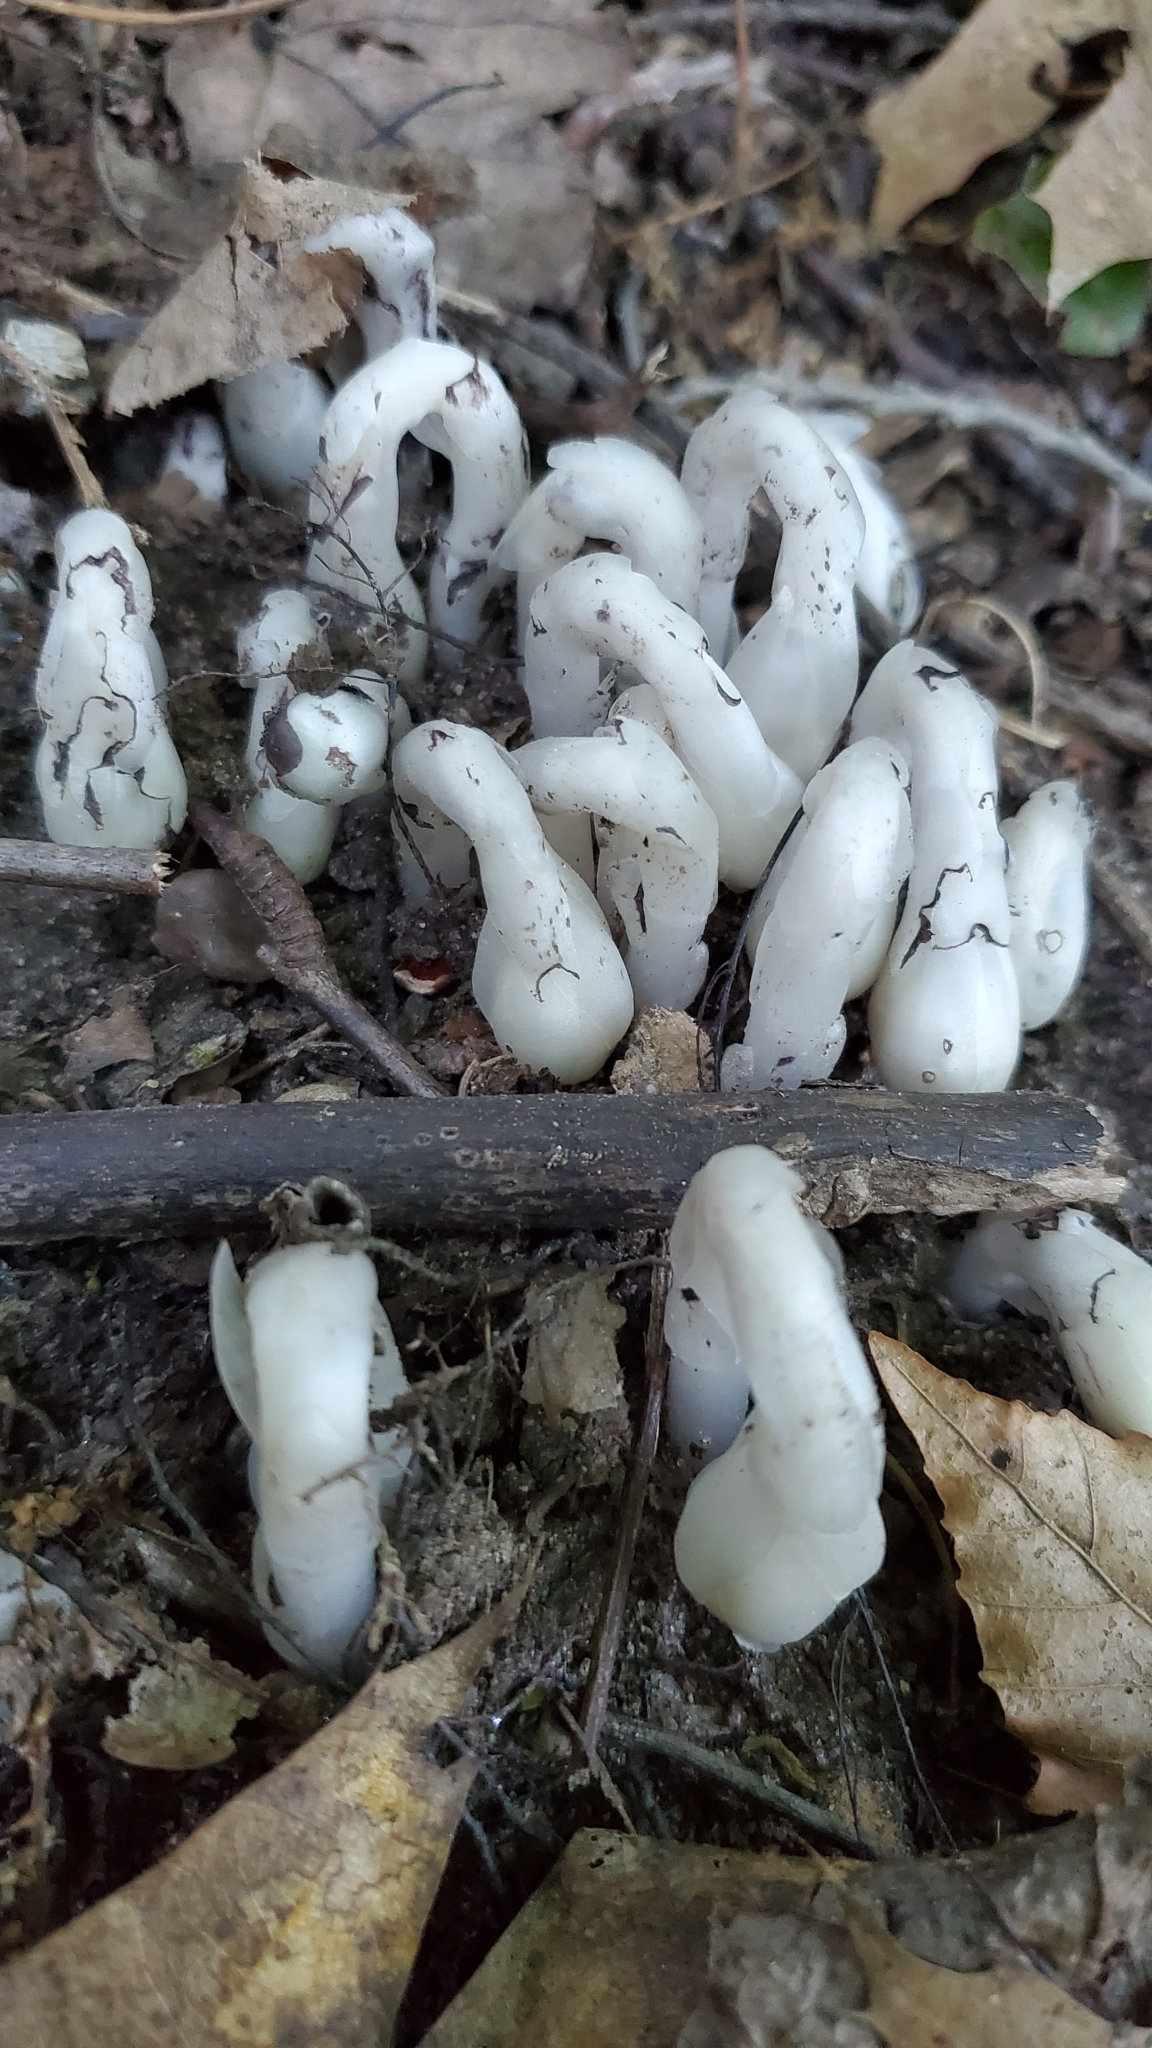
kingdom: Plantae
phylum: Tracheophyta
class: Magnoliopsida
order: Ericales
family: Ericaceae
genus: Monotropa
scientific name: Monotropa uniflora
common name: Convulsion root
